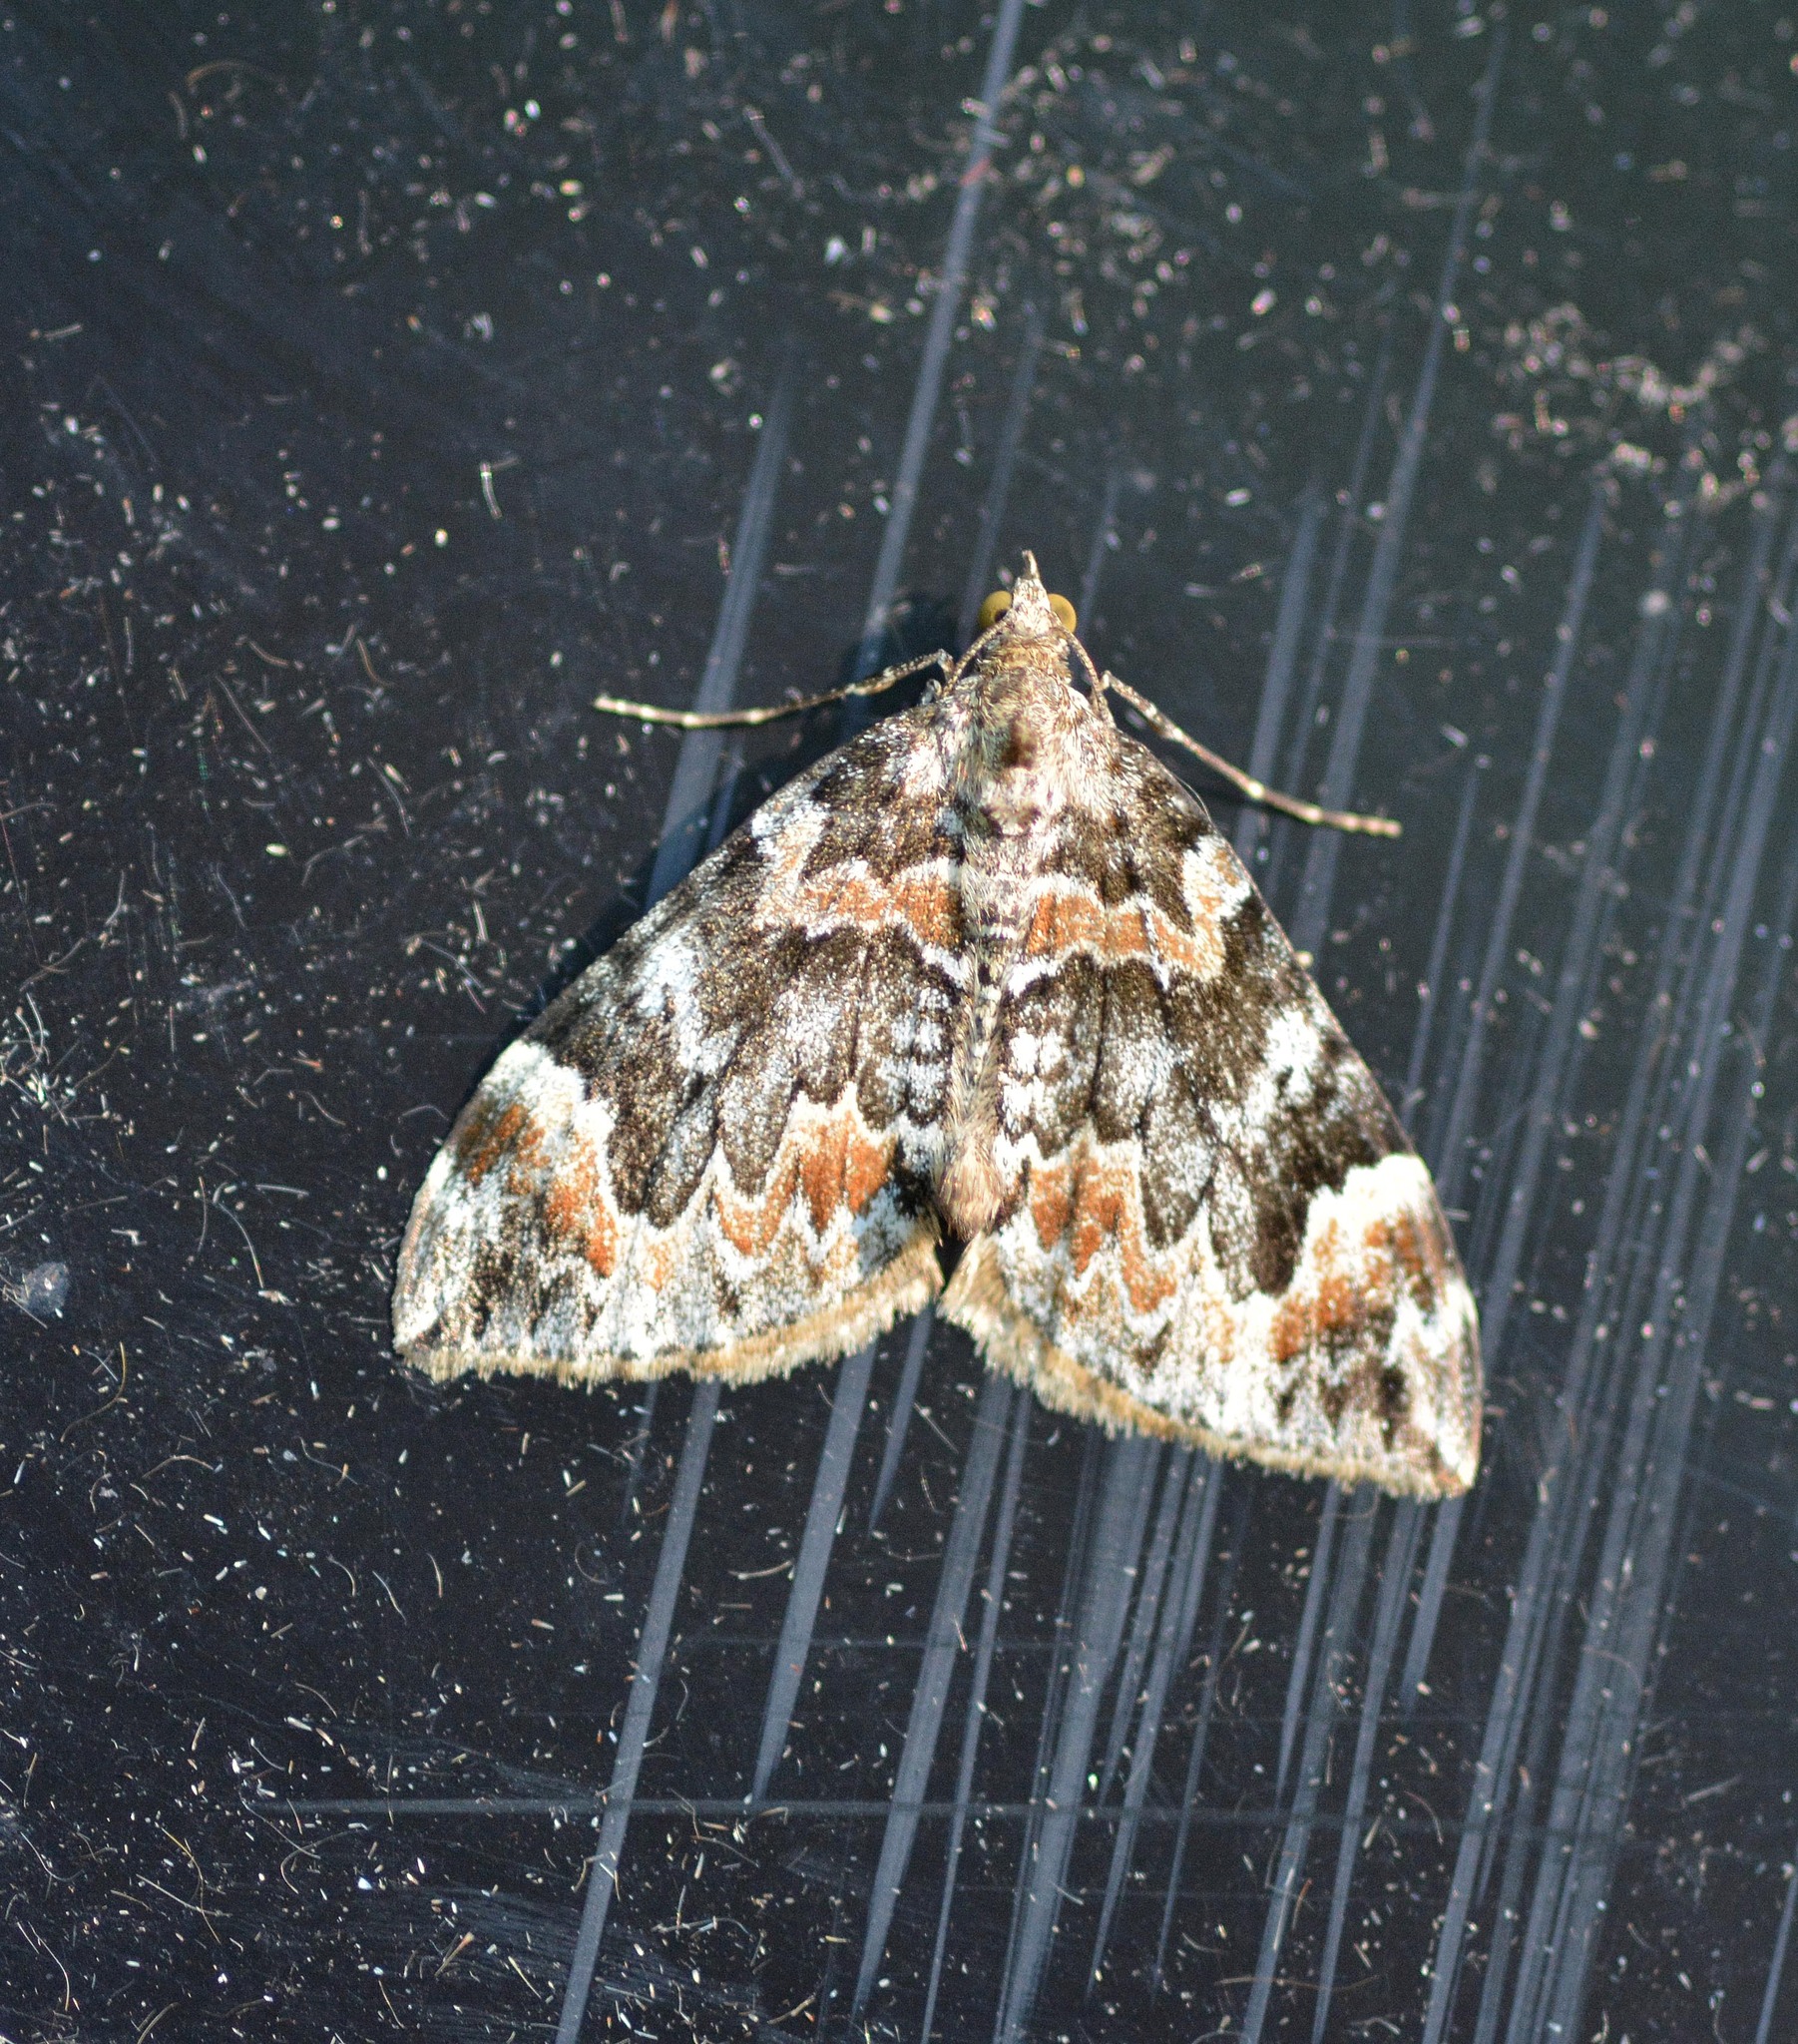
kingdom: Animalia
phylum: Arthropoda
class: Insecta
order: Lepidoptera
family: Geometridae
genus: Dysstroma
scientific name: Dysstroma citrata
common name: Dark marbled carpet
